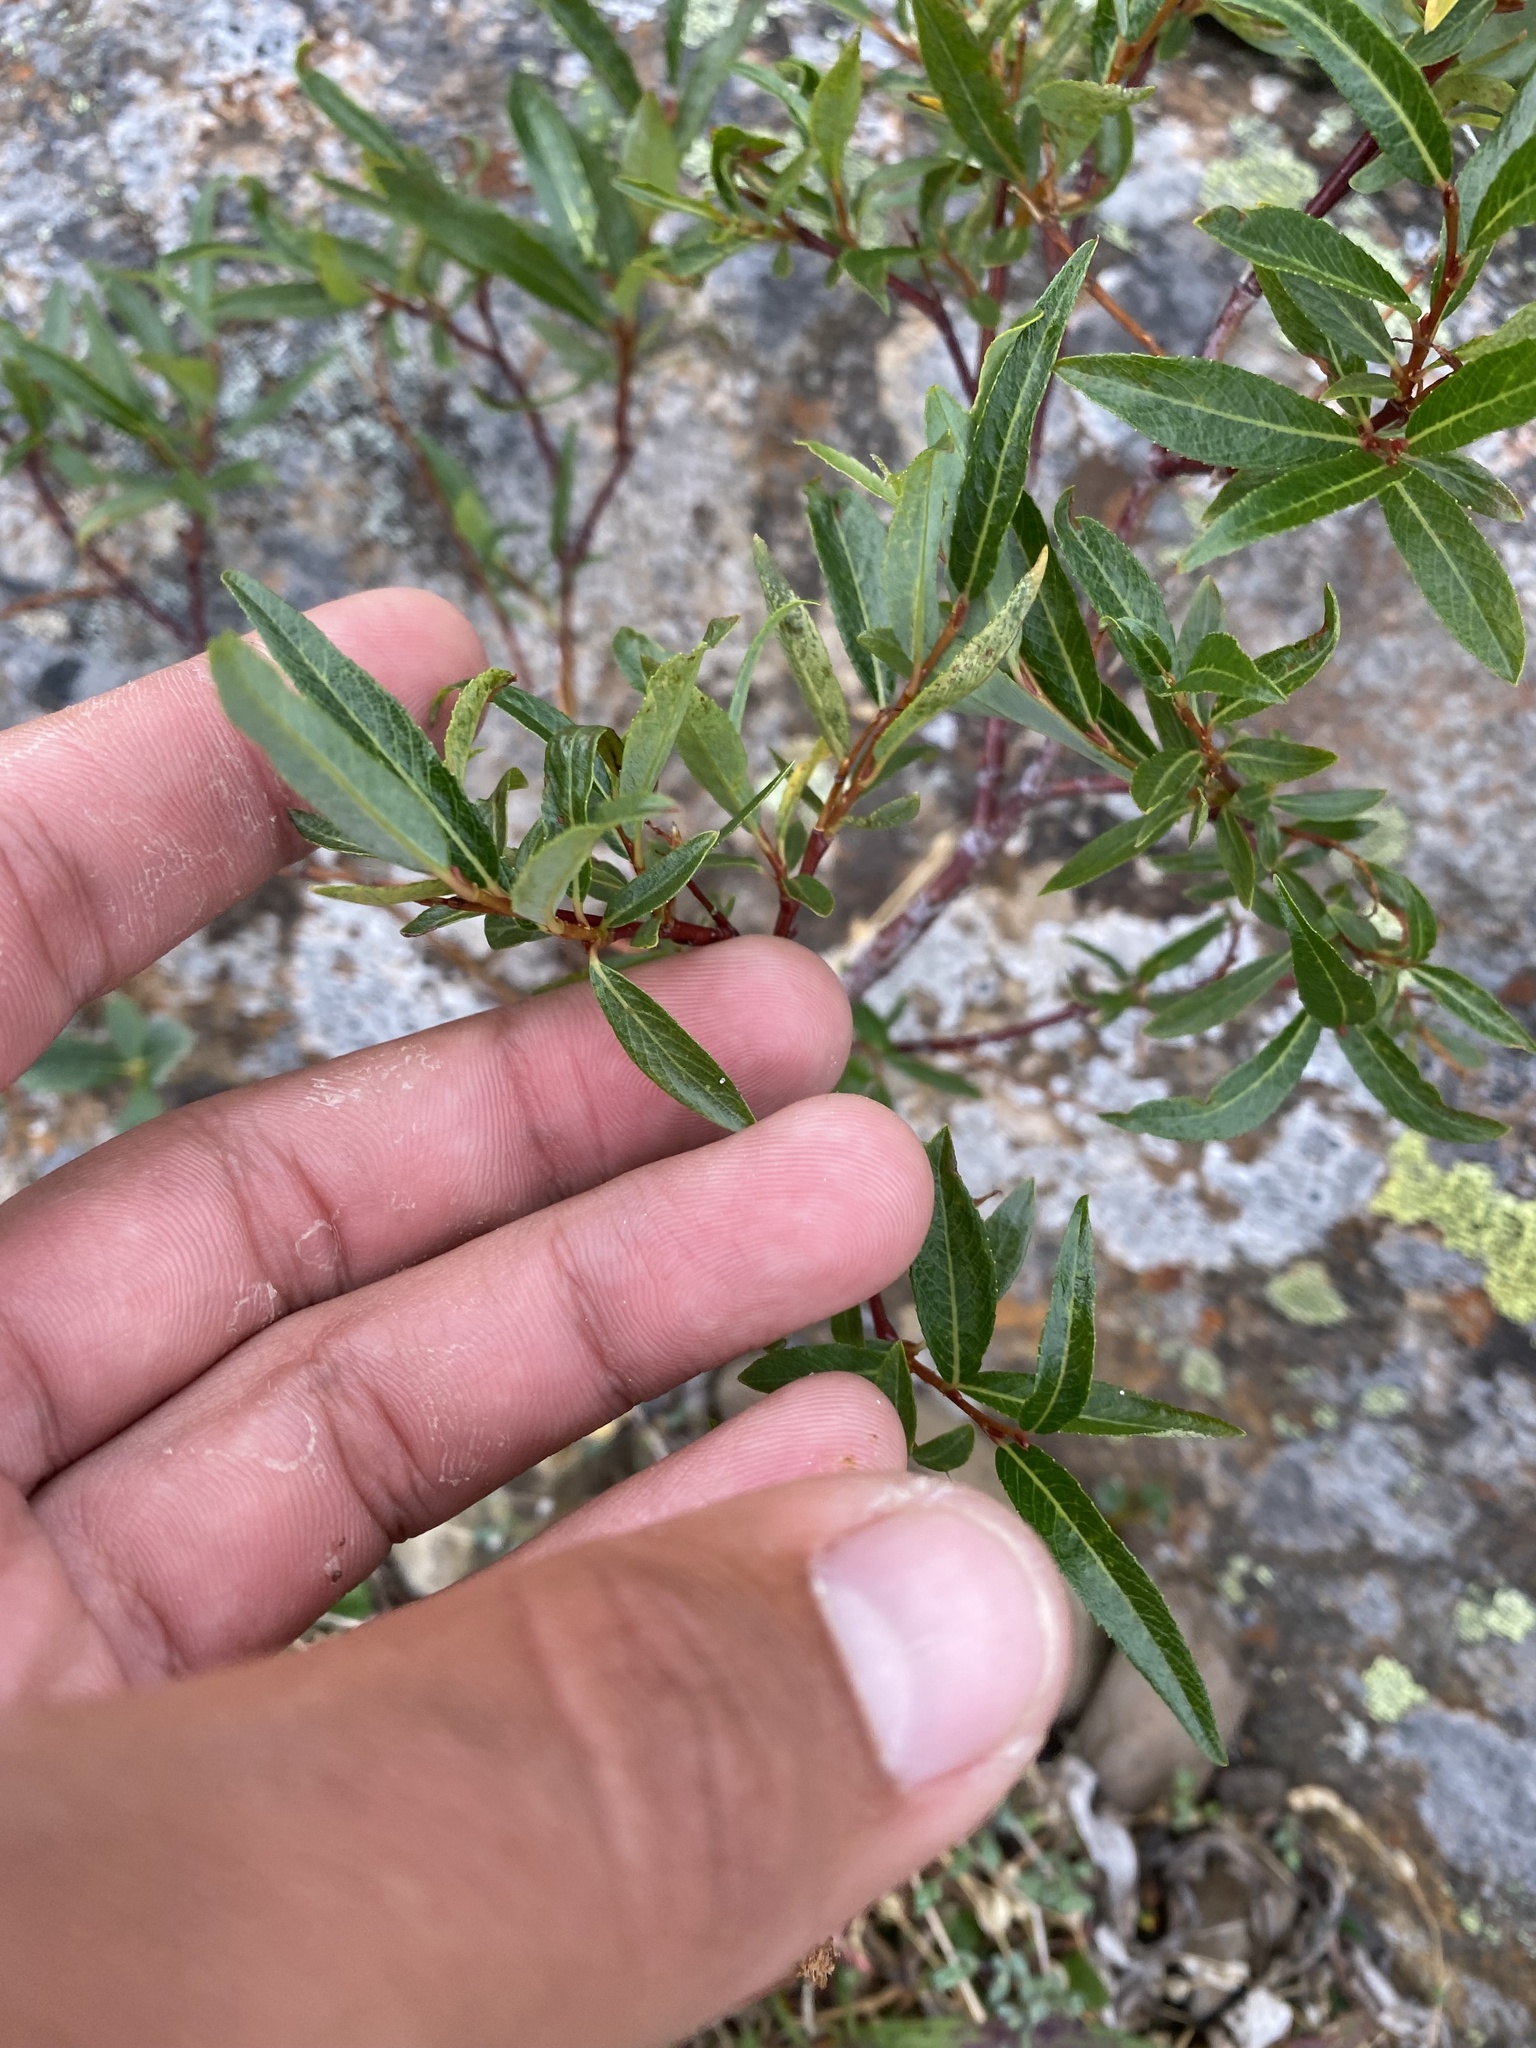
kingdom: Plantae
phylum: Tracheophyta
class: Magnoliopsida
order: Malpighiales
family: Salicaceae
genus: Salix
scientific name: Salix boganidensis
